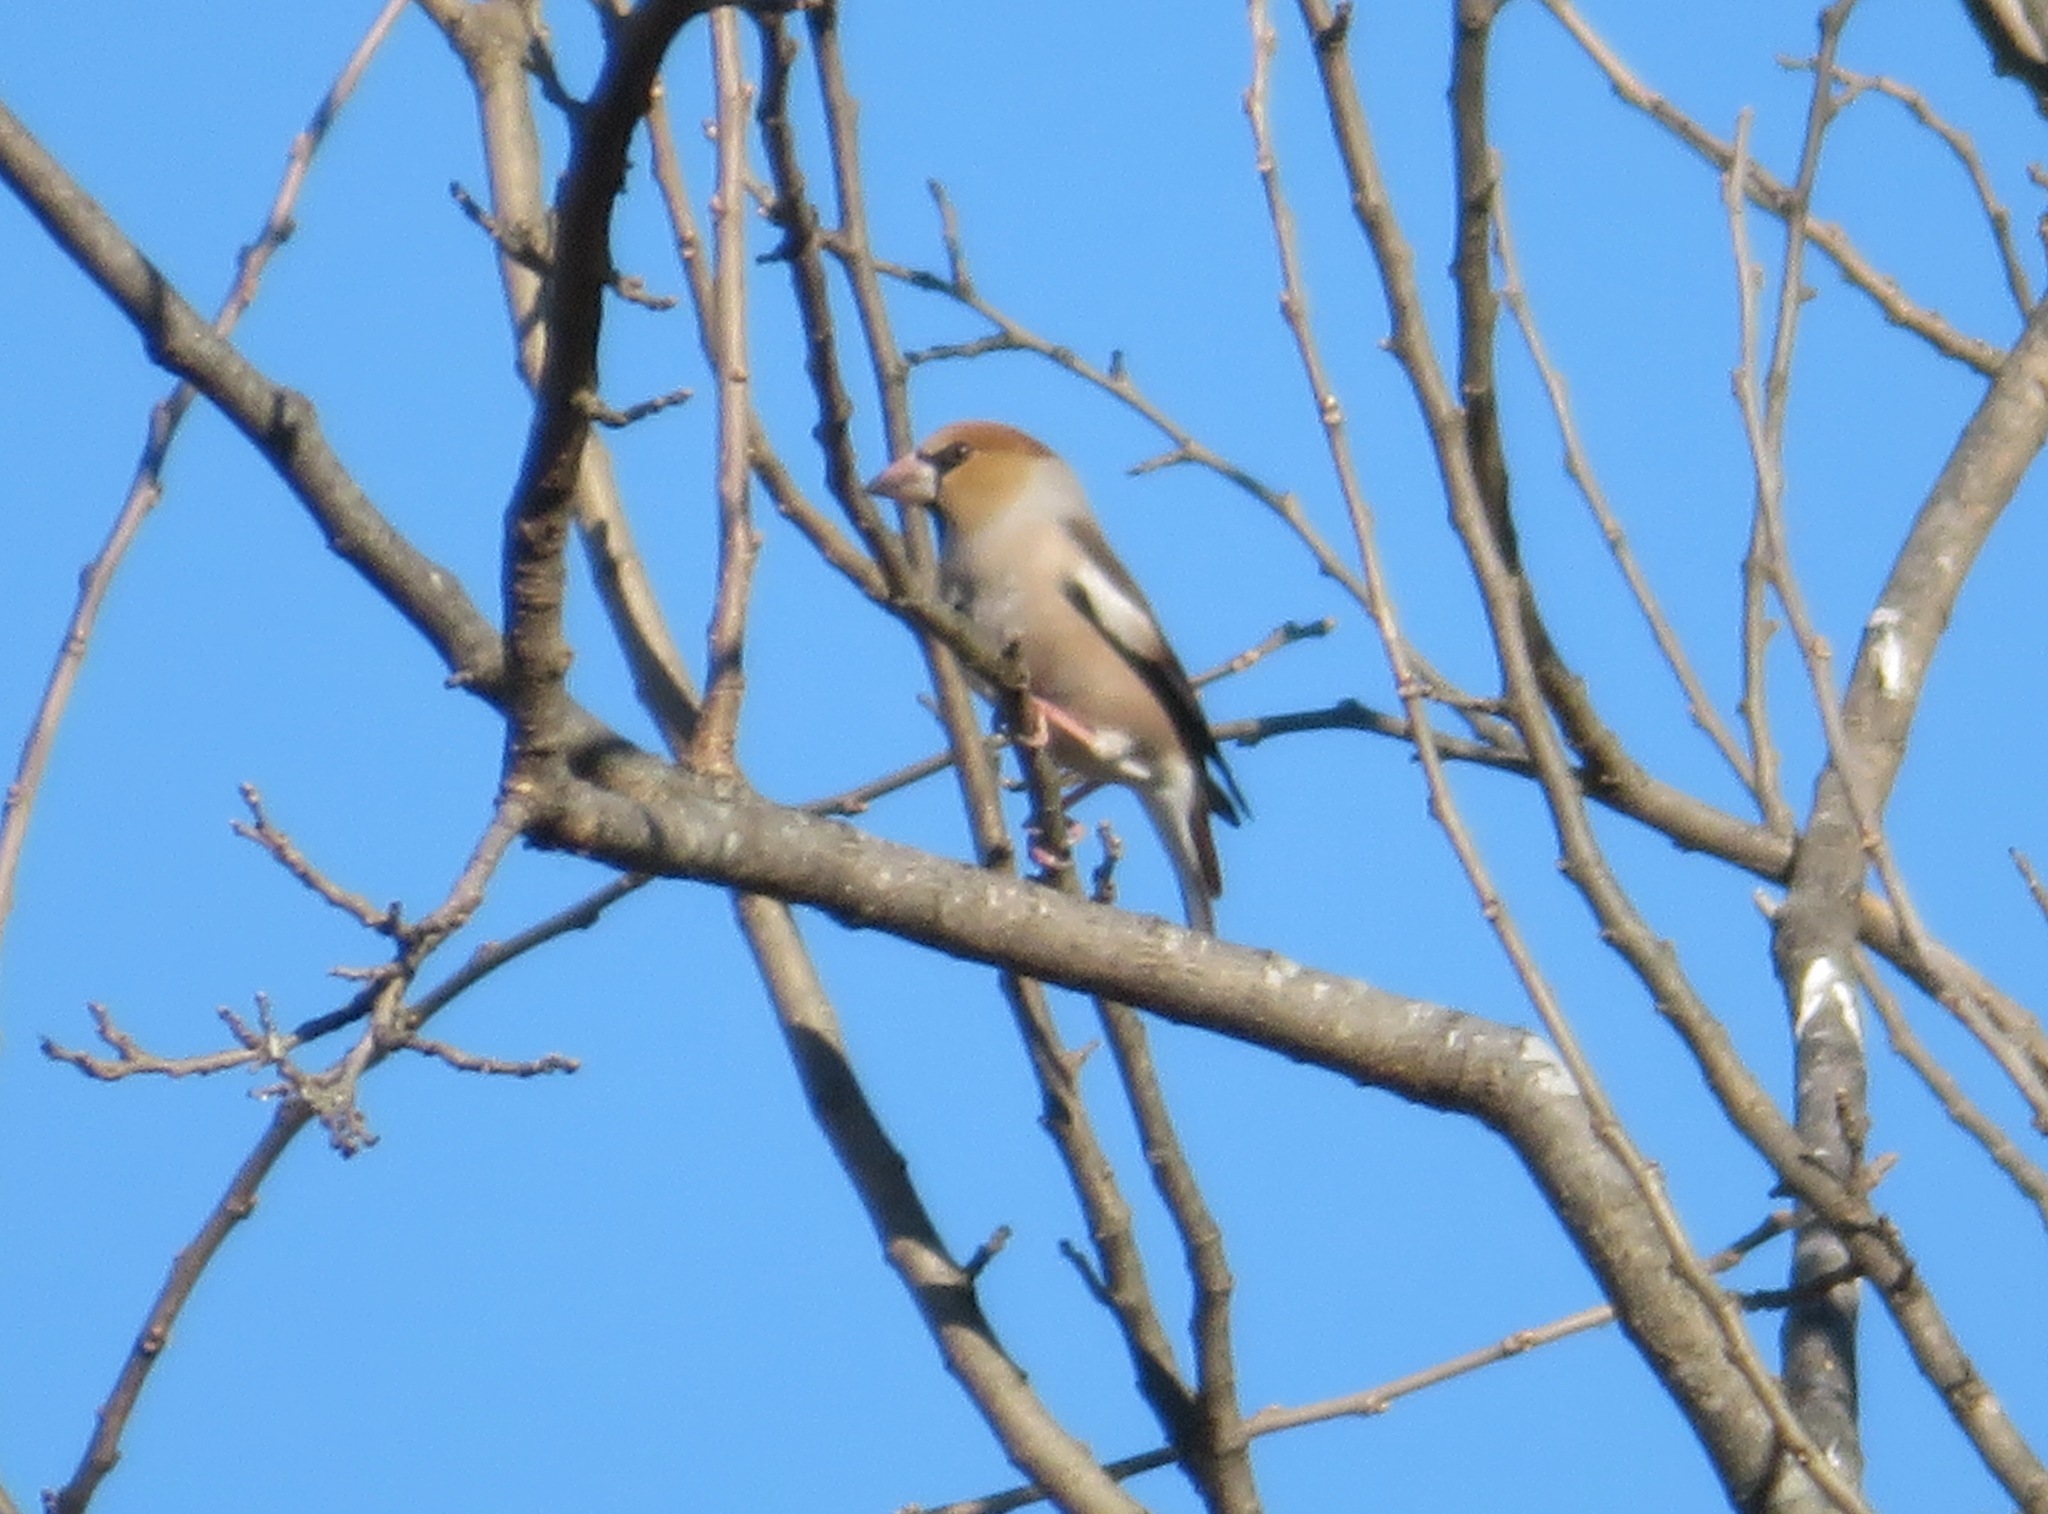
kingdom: Animalia
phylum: Chordata
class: Aves
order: Passeriformes
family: Fringillidae
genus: Coccothraustes
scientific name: Coccothraustes coccothraustes
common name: Hawfinch
